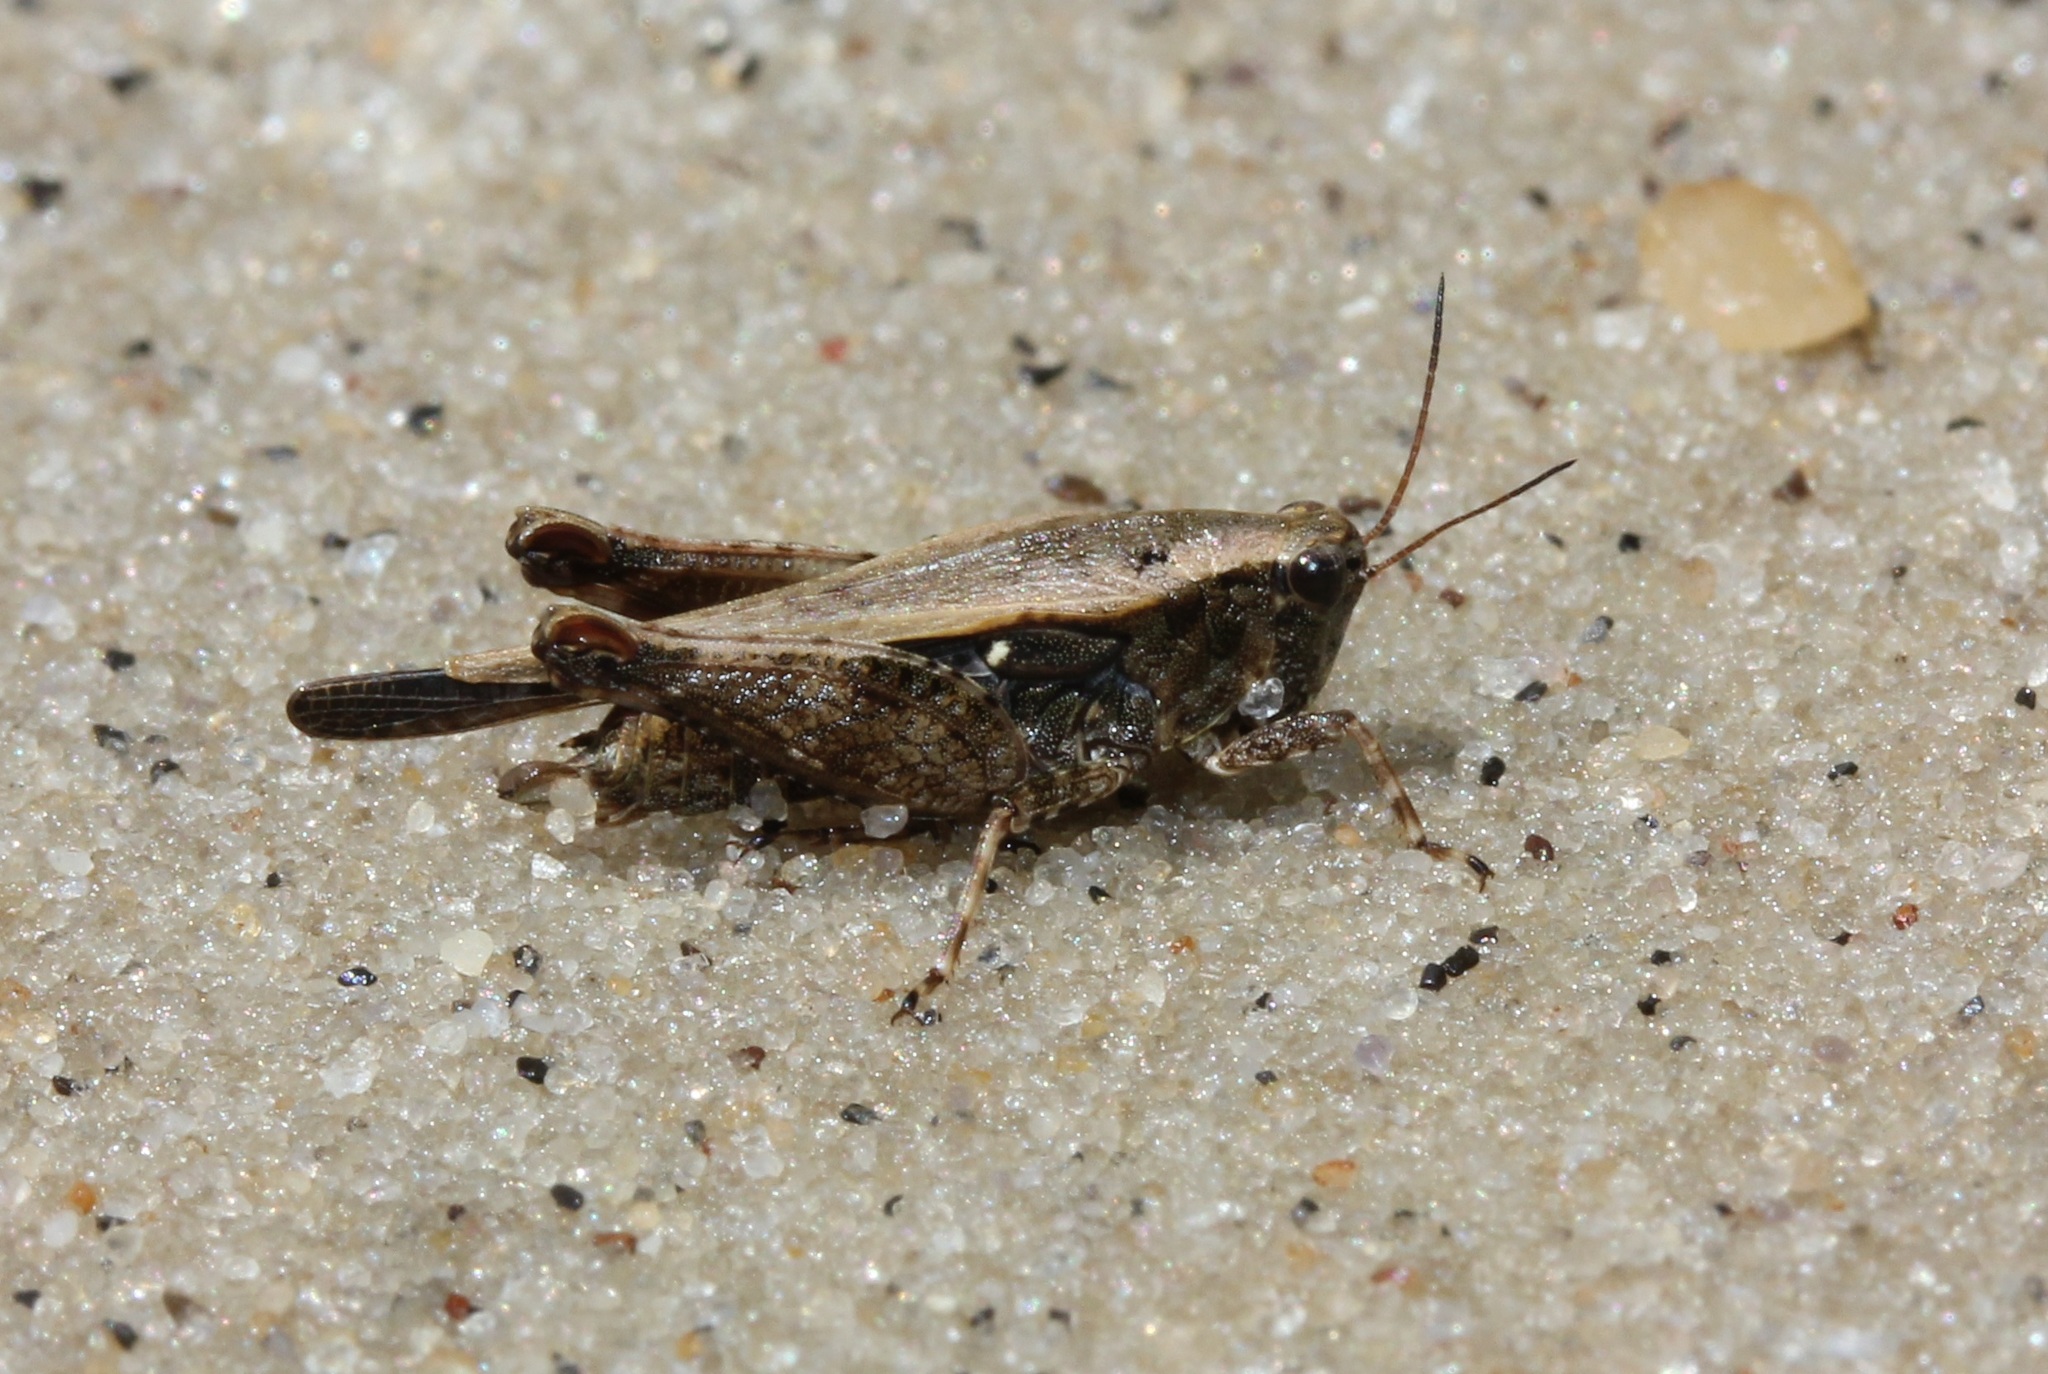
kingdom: Animalia
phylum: Arthropoda
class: Insecta
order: Orthoptera
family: Tetrigidae
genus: Tettigidea
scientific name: Tettigidea laterale
